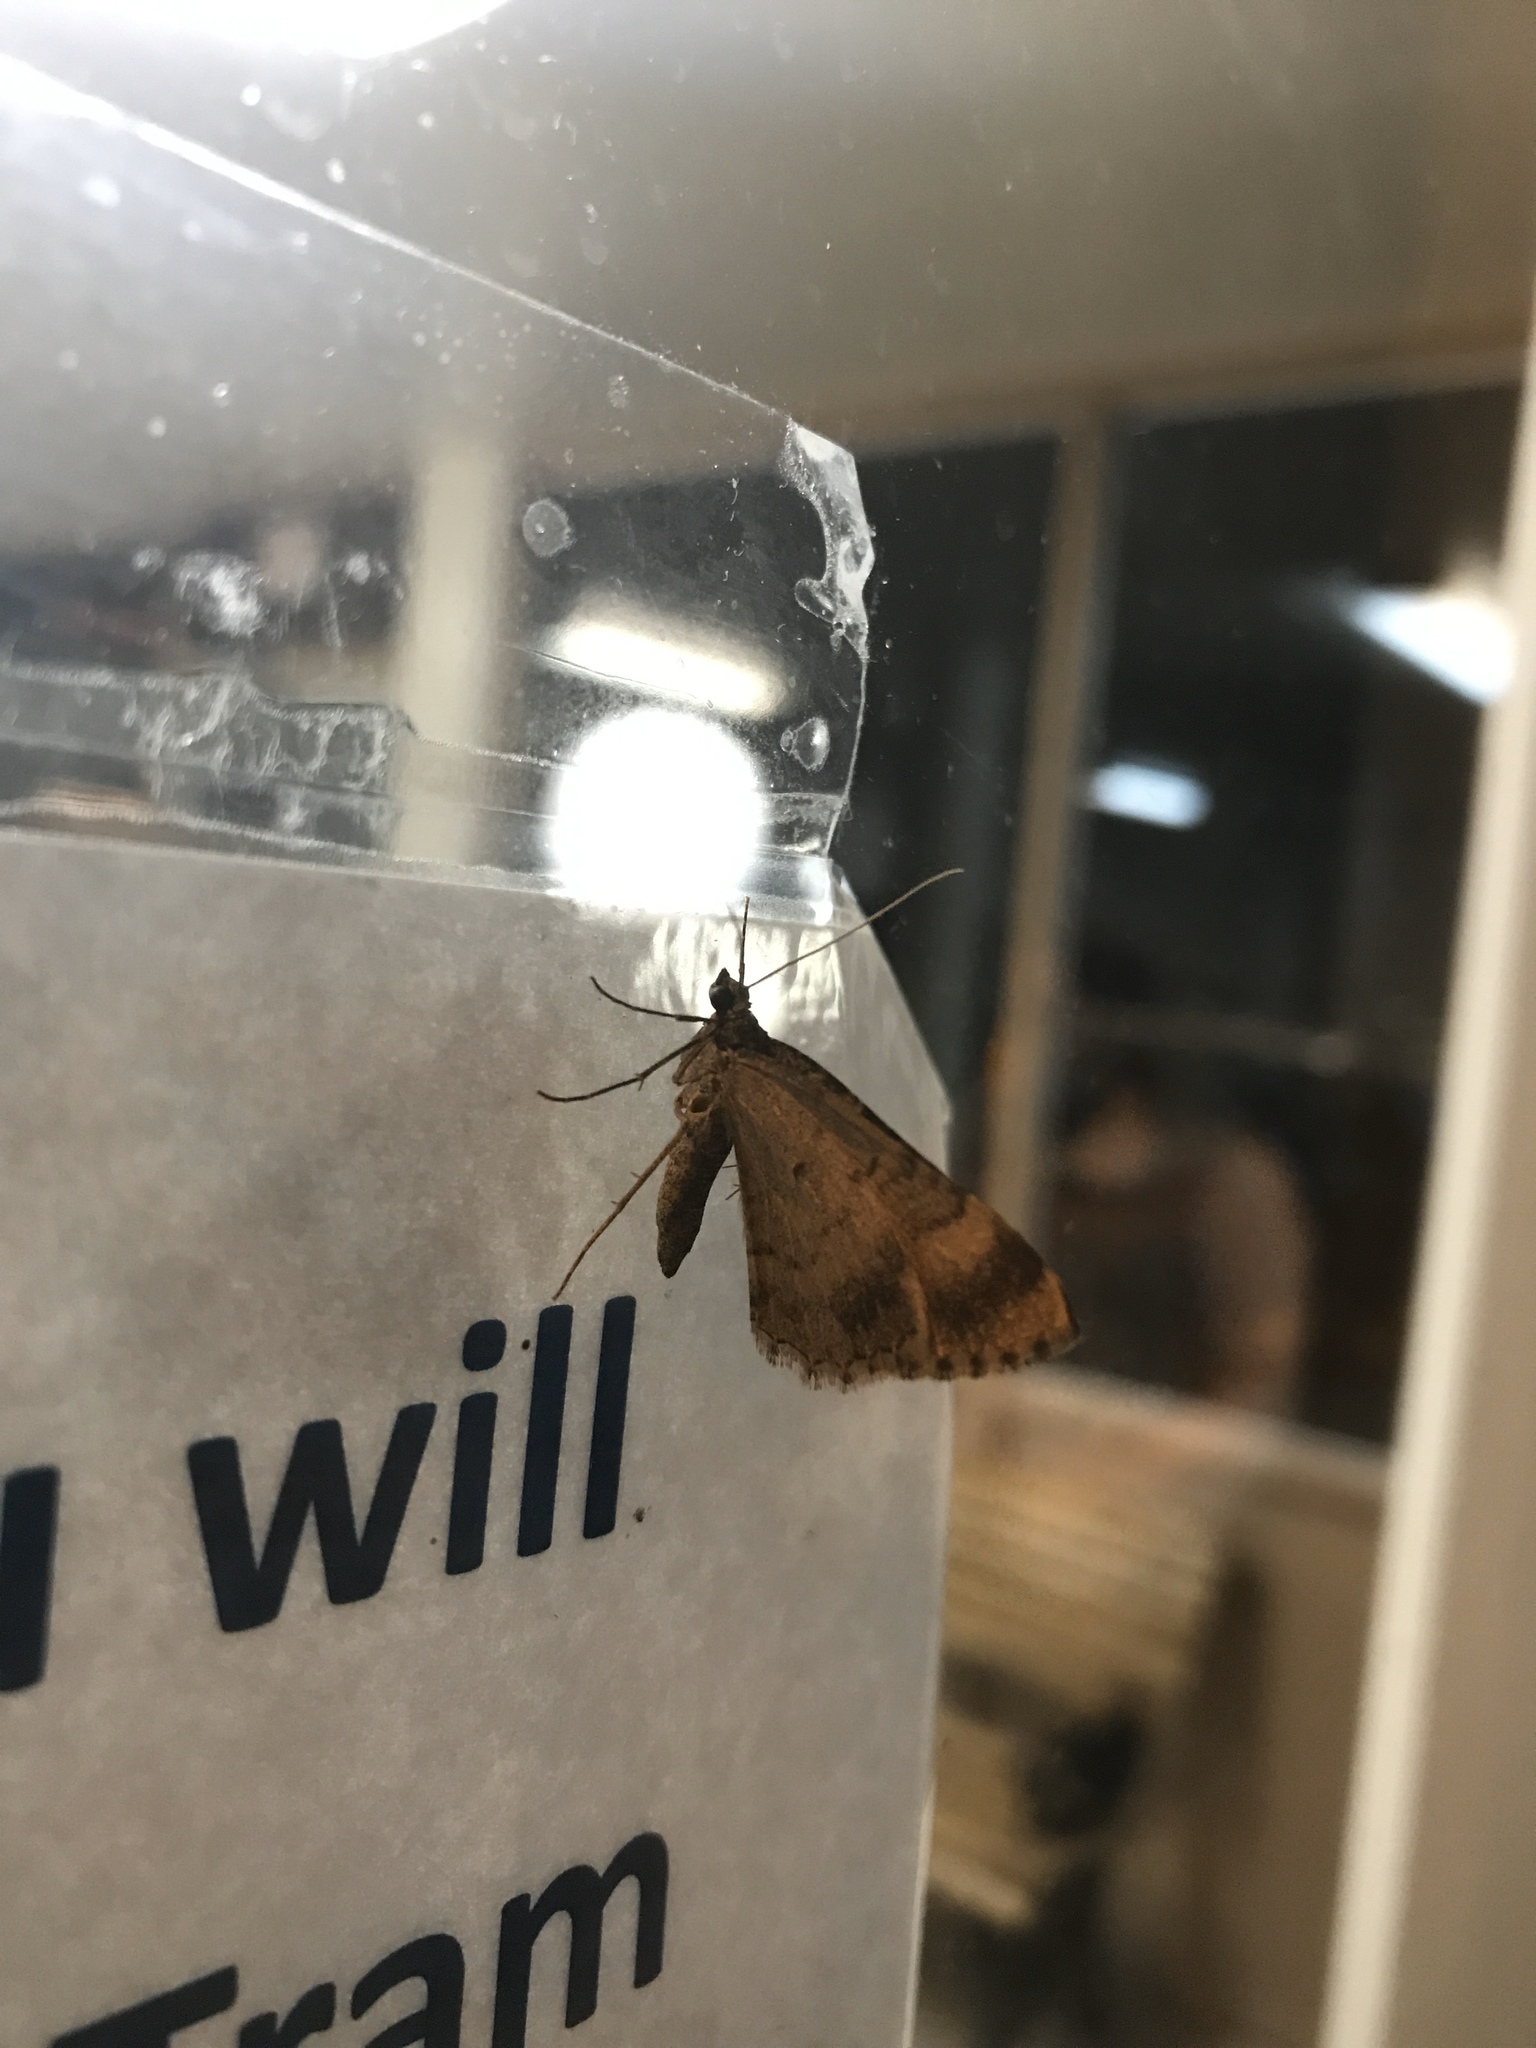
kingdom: Animalia
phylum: Arthropoda
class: Insecta
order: Lepidoptera
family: Geometridae
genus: Archirhoe
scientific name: Archirhoe neomexicana
